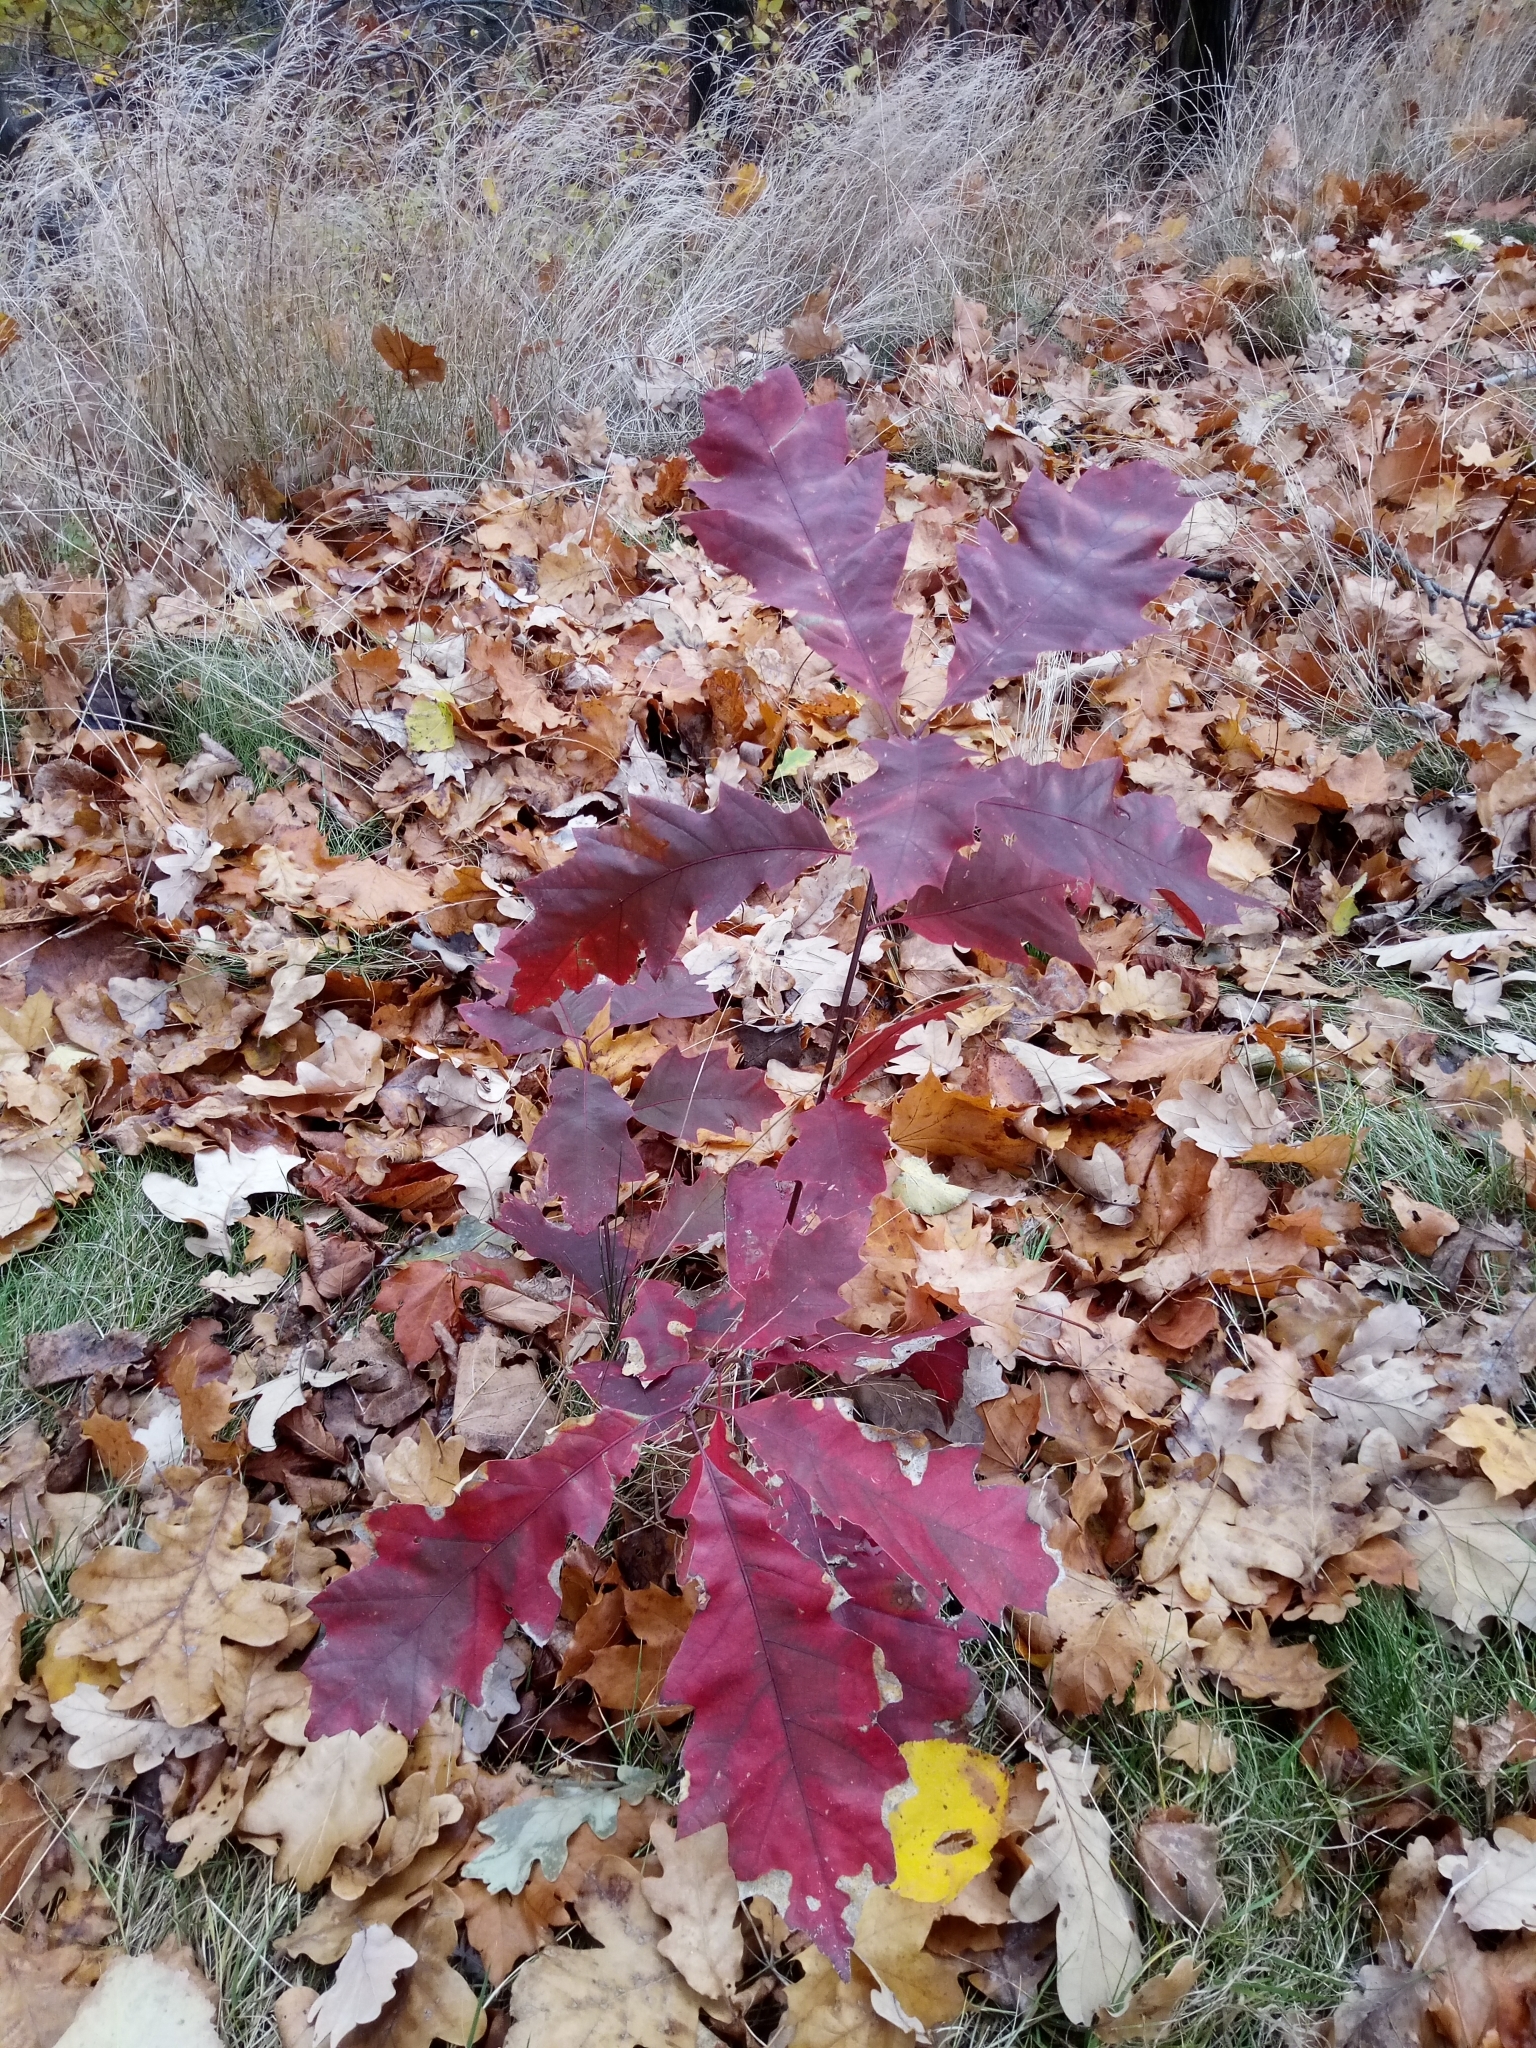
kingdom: Plantae
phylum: Tracheophyta
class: Magnoliopsida
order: Fagales
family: Fagaceae
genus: Quercus
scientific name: Quercus rubra
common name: Red oak
